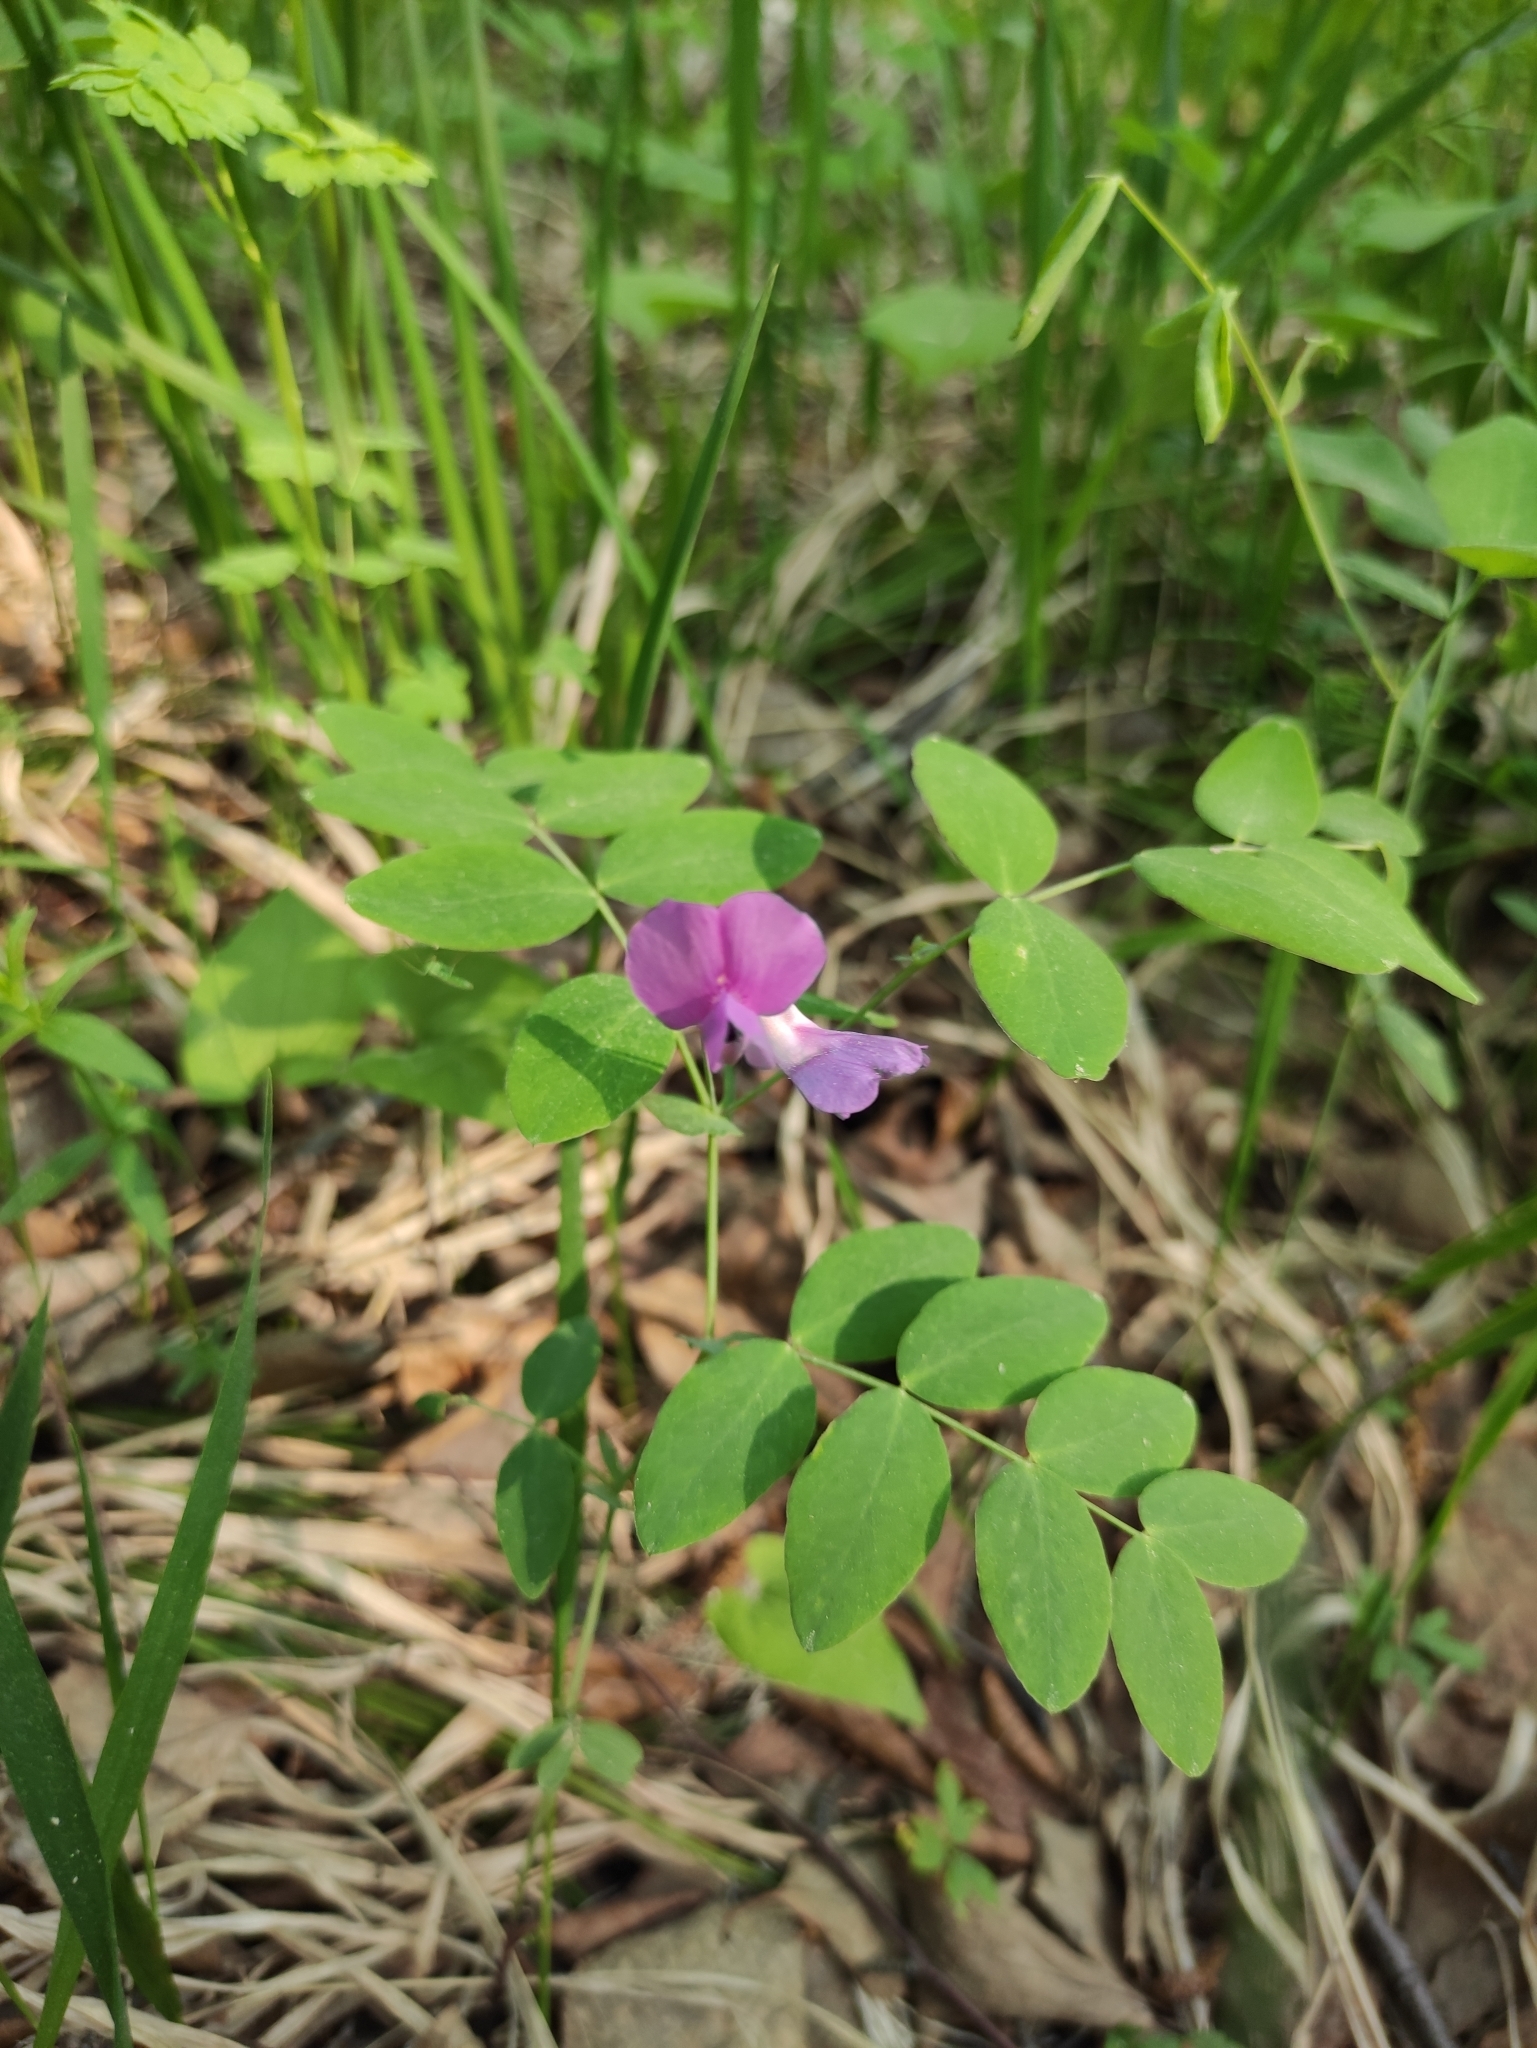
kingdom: Plantae
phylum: Tracheophyta
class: Magnoliopsida
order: Fabales
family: Fabaceae
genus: Lathyrus
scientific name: Lathyrus humilis
